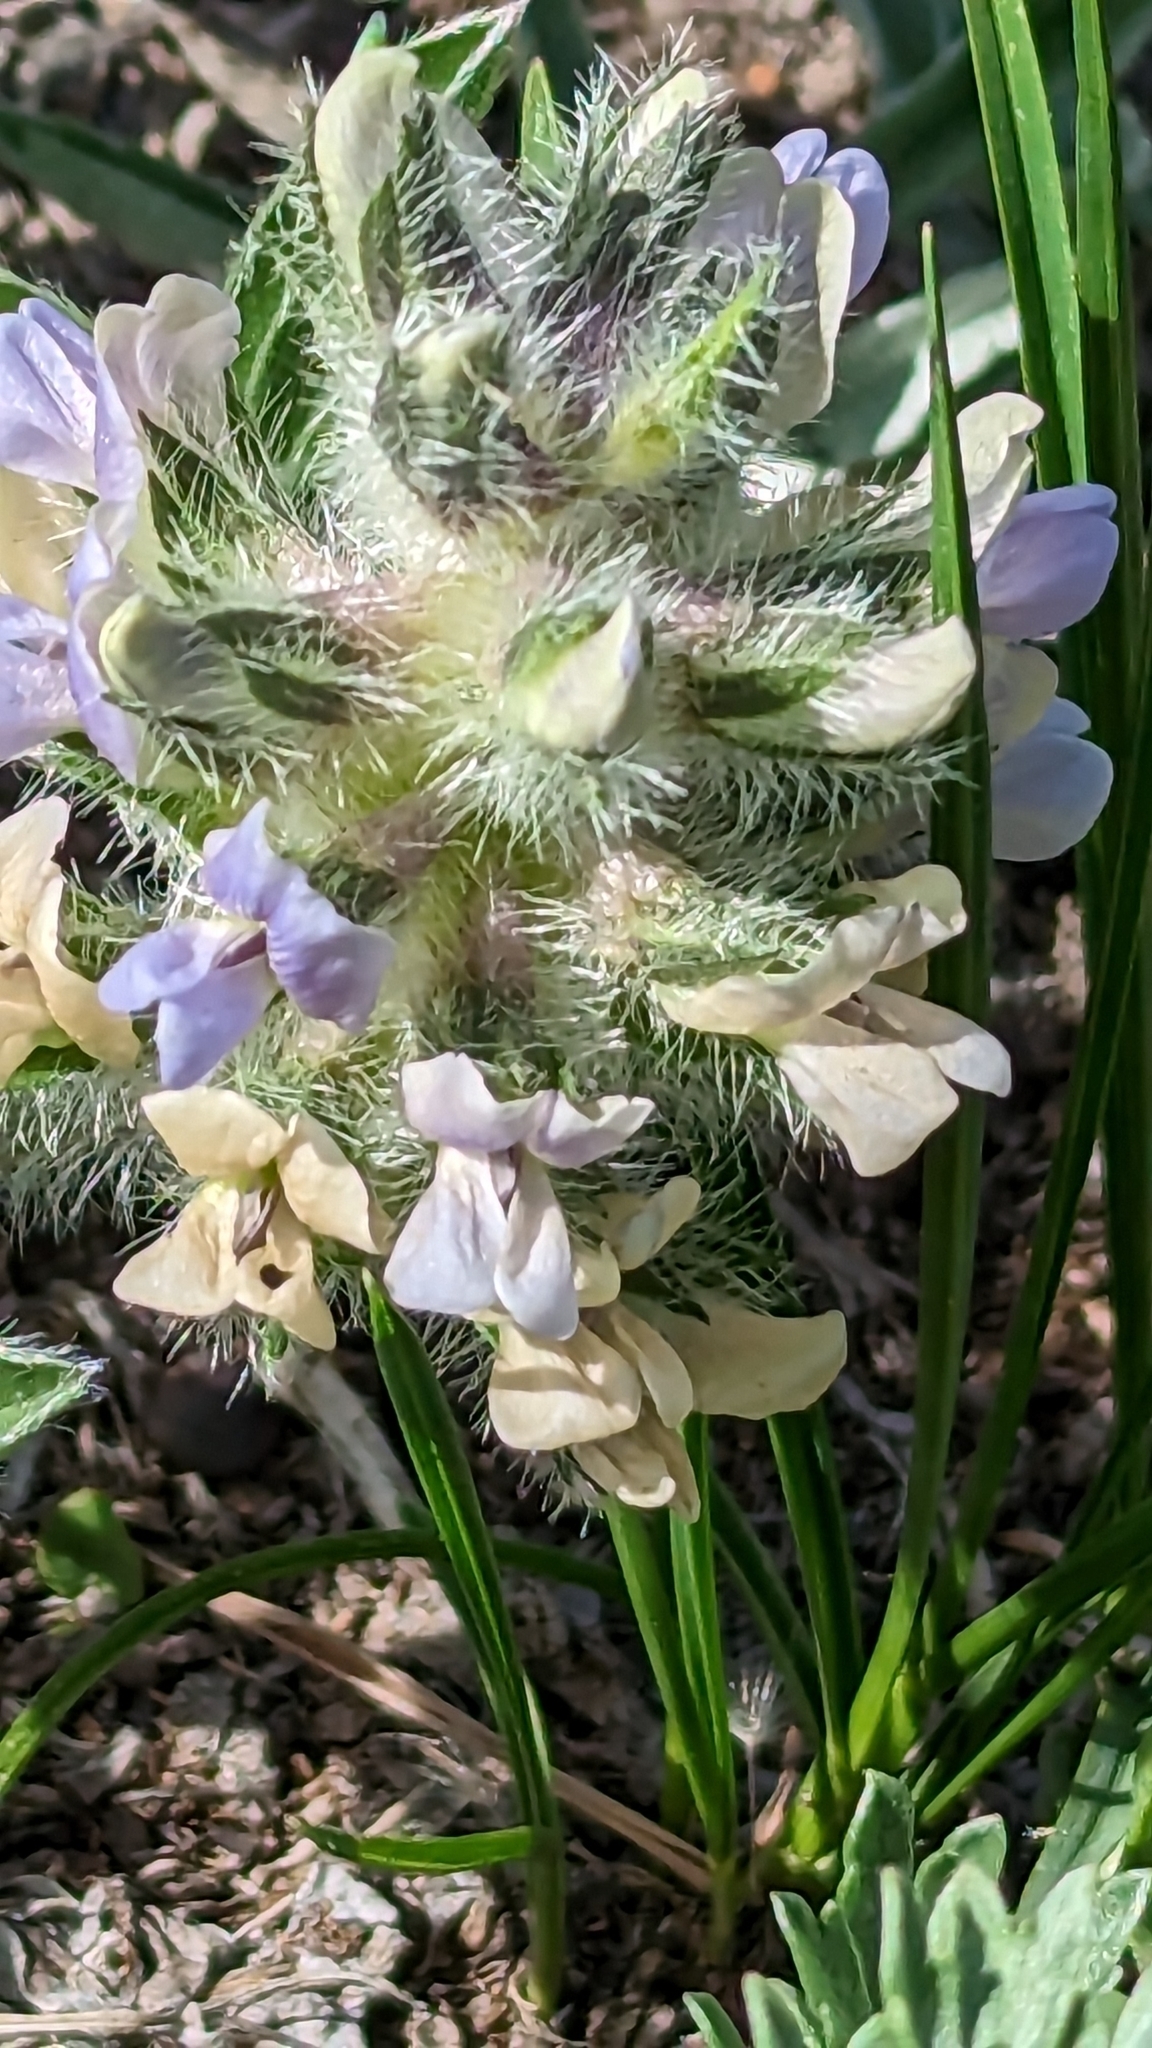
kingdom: Plantae
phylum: Tracheophyta
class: Magnoliopsida
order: Fabales
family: Fabaceae
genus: Pediomelum
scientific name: Pediomelum esculentum
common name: Indian-turnip
